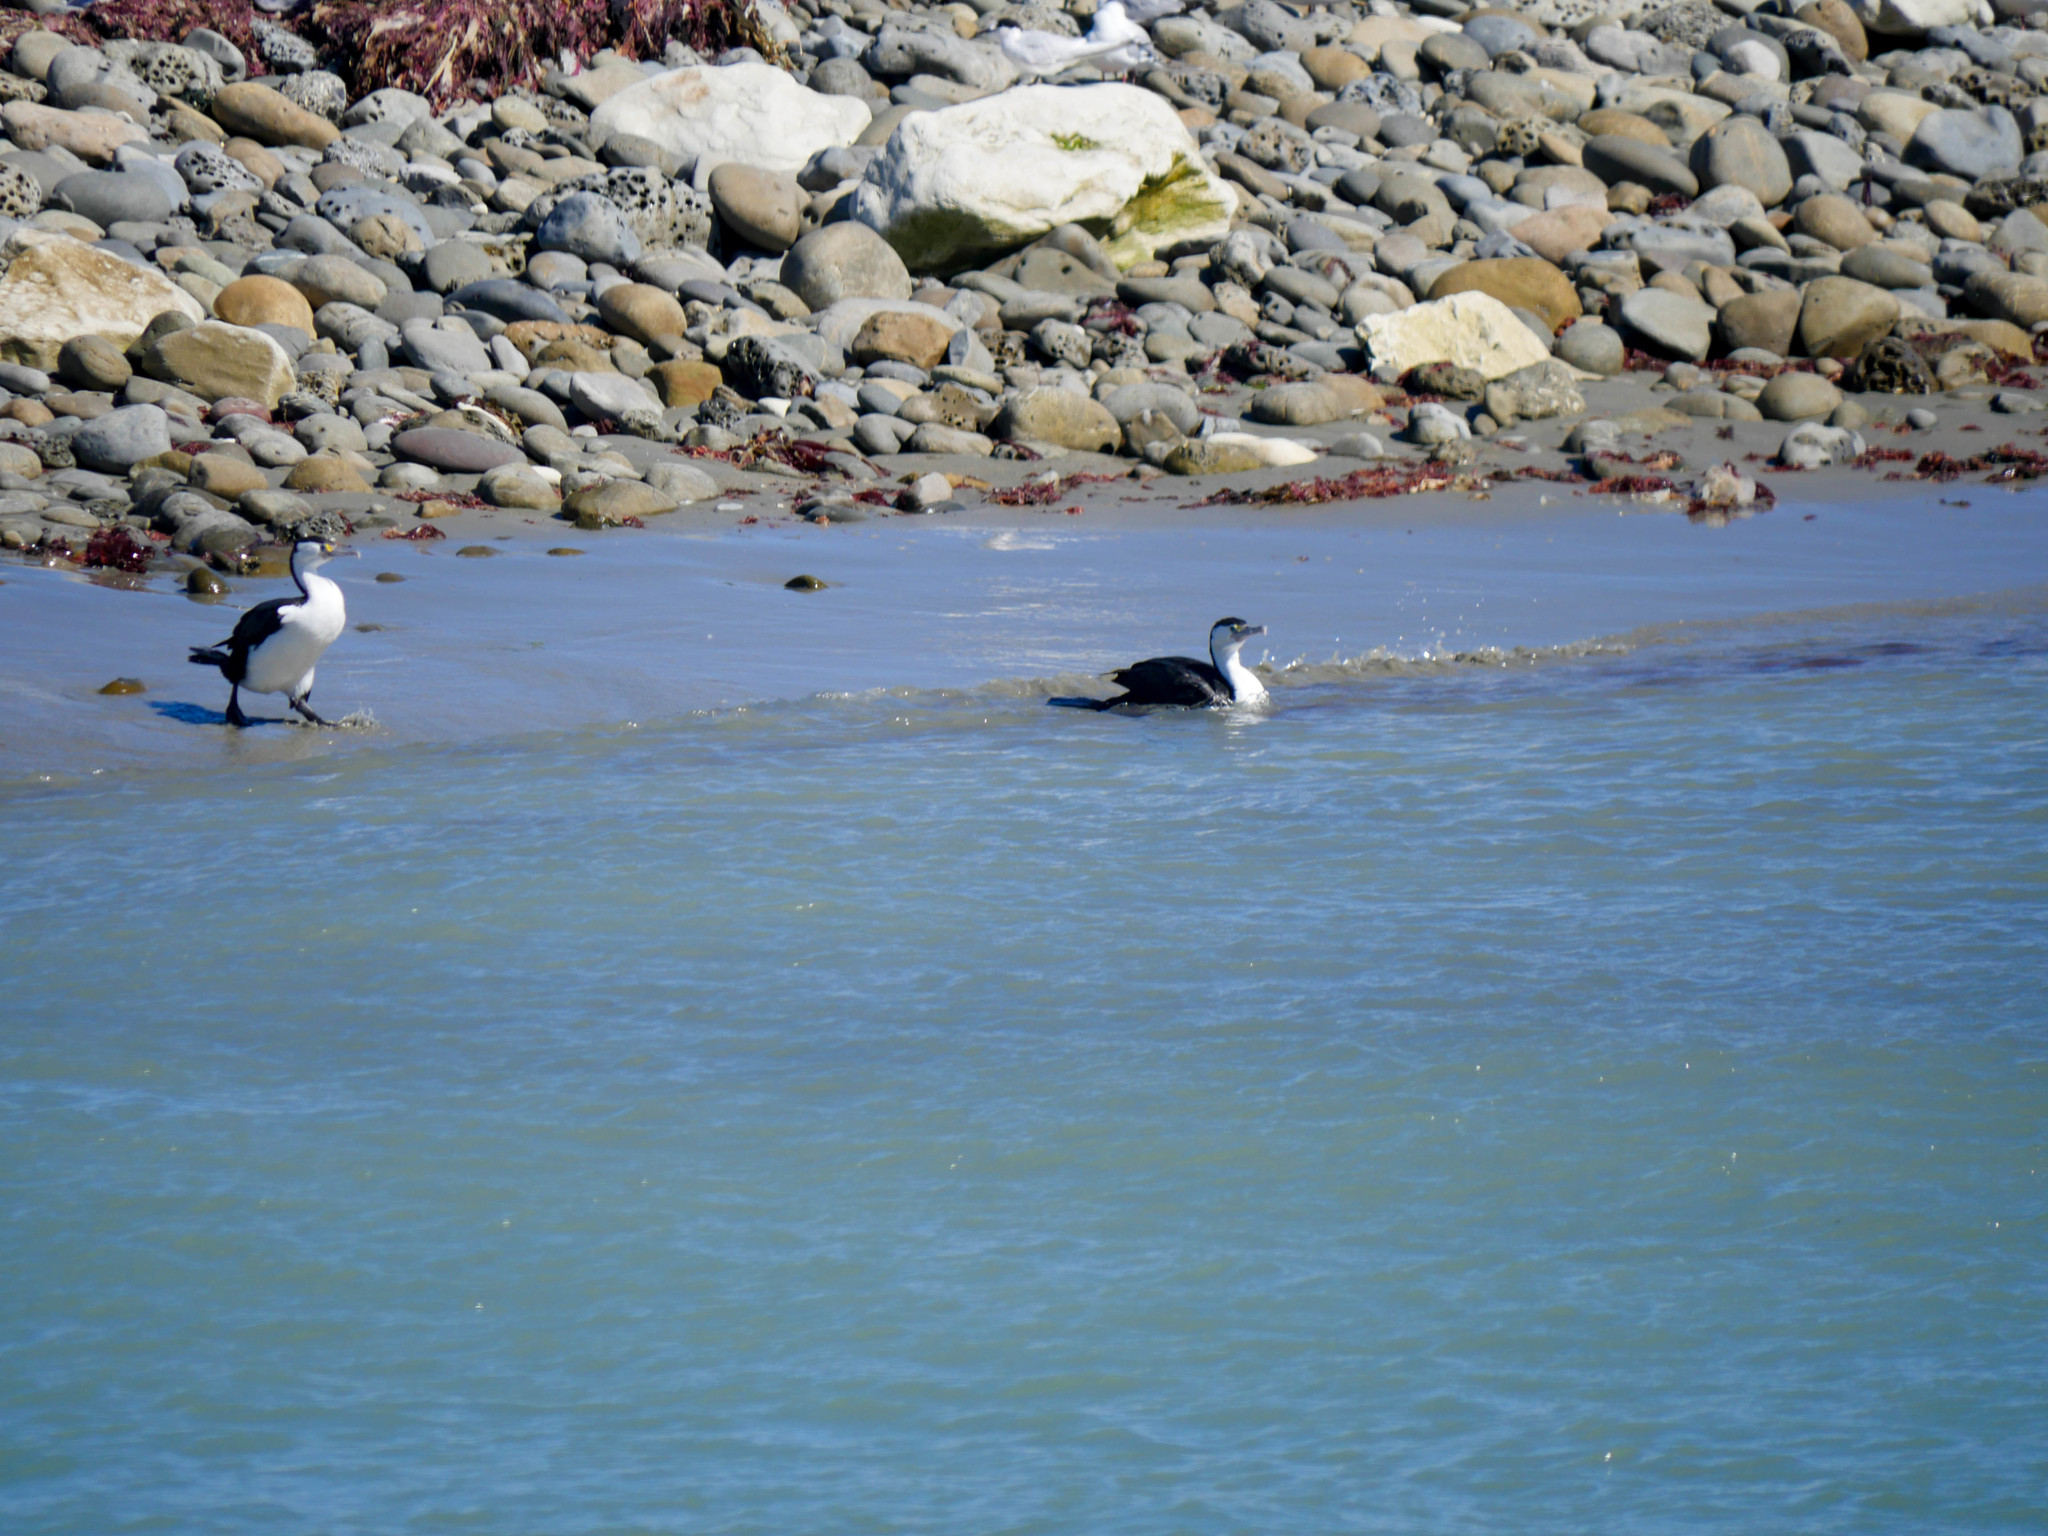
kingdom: Animalia
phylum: Chordata
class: Aves
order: Suliformes
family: Phalacrocoracidae
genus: Phalacrocorax
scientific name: Phalacrocorax varius
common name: Pied cormorant
